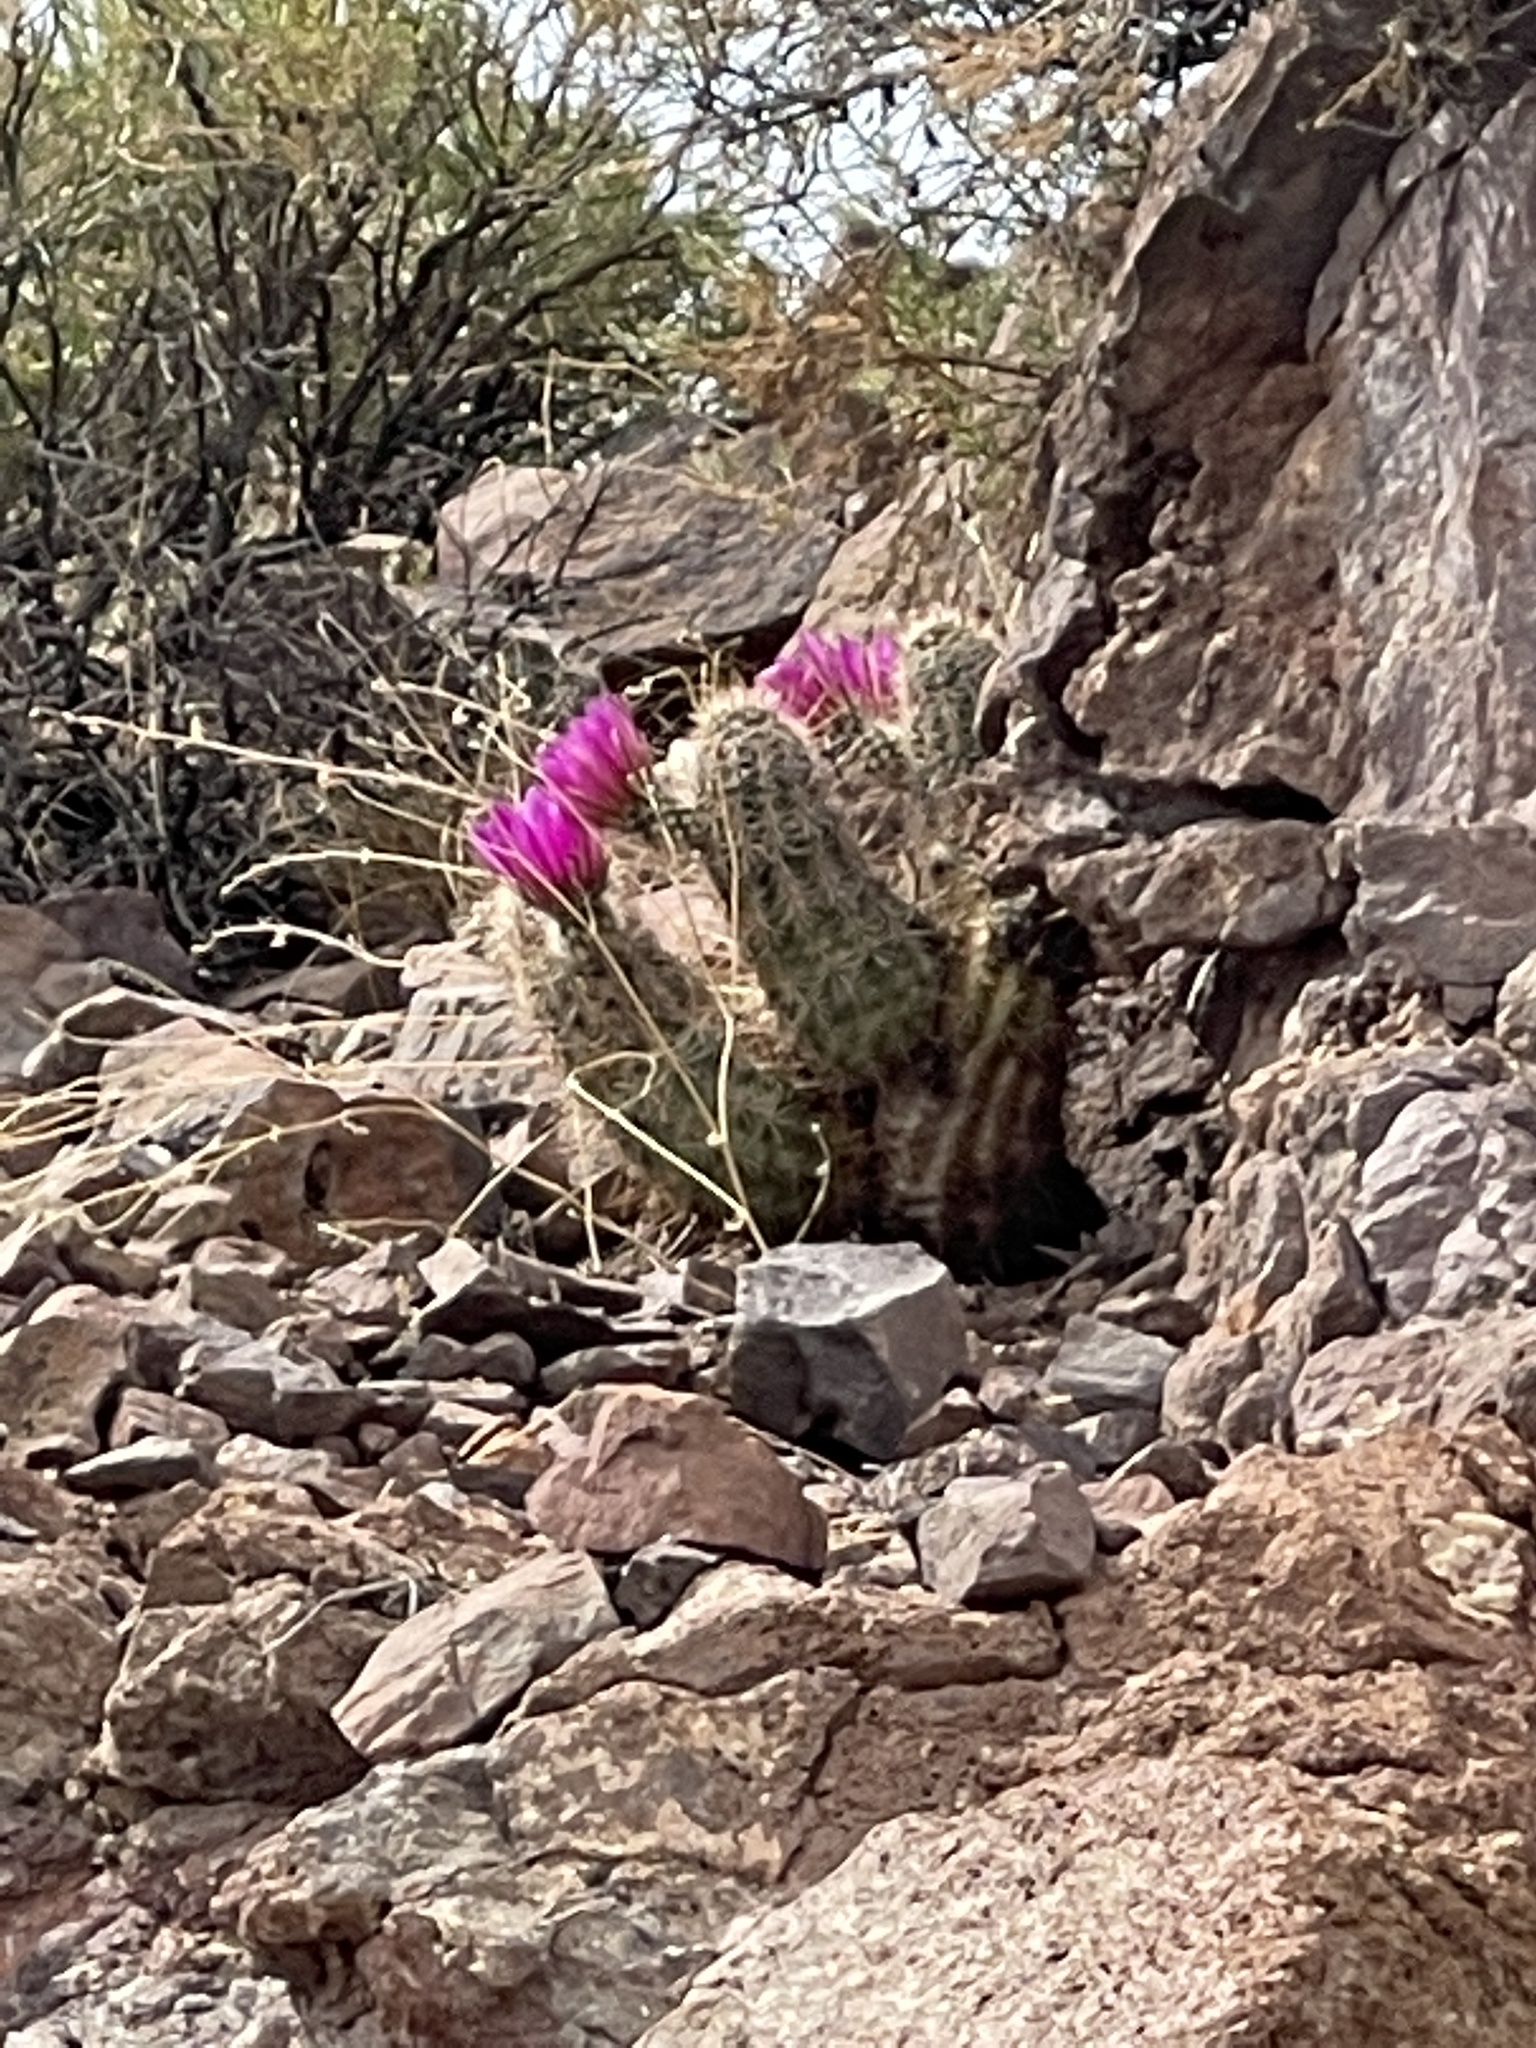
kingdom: Plantae
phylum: Tracheophyta
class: Magnoliopsida
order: Caryophyllales
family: Cactaceae
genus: Echinocereus
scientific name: Echinocereus fasciculatus
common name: Bundle hedgehog
